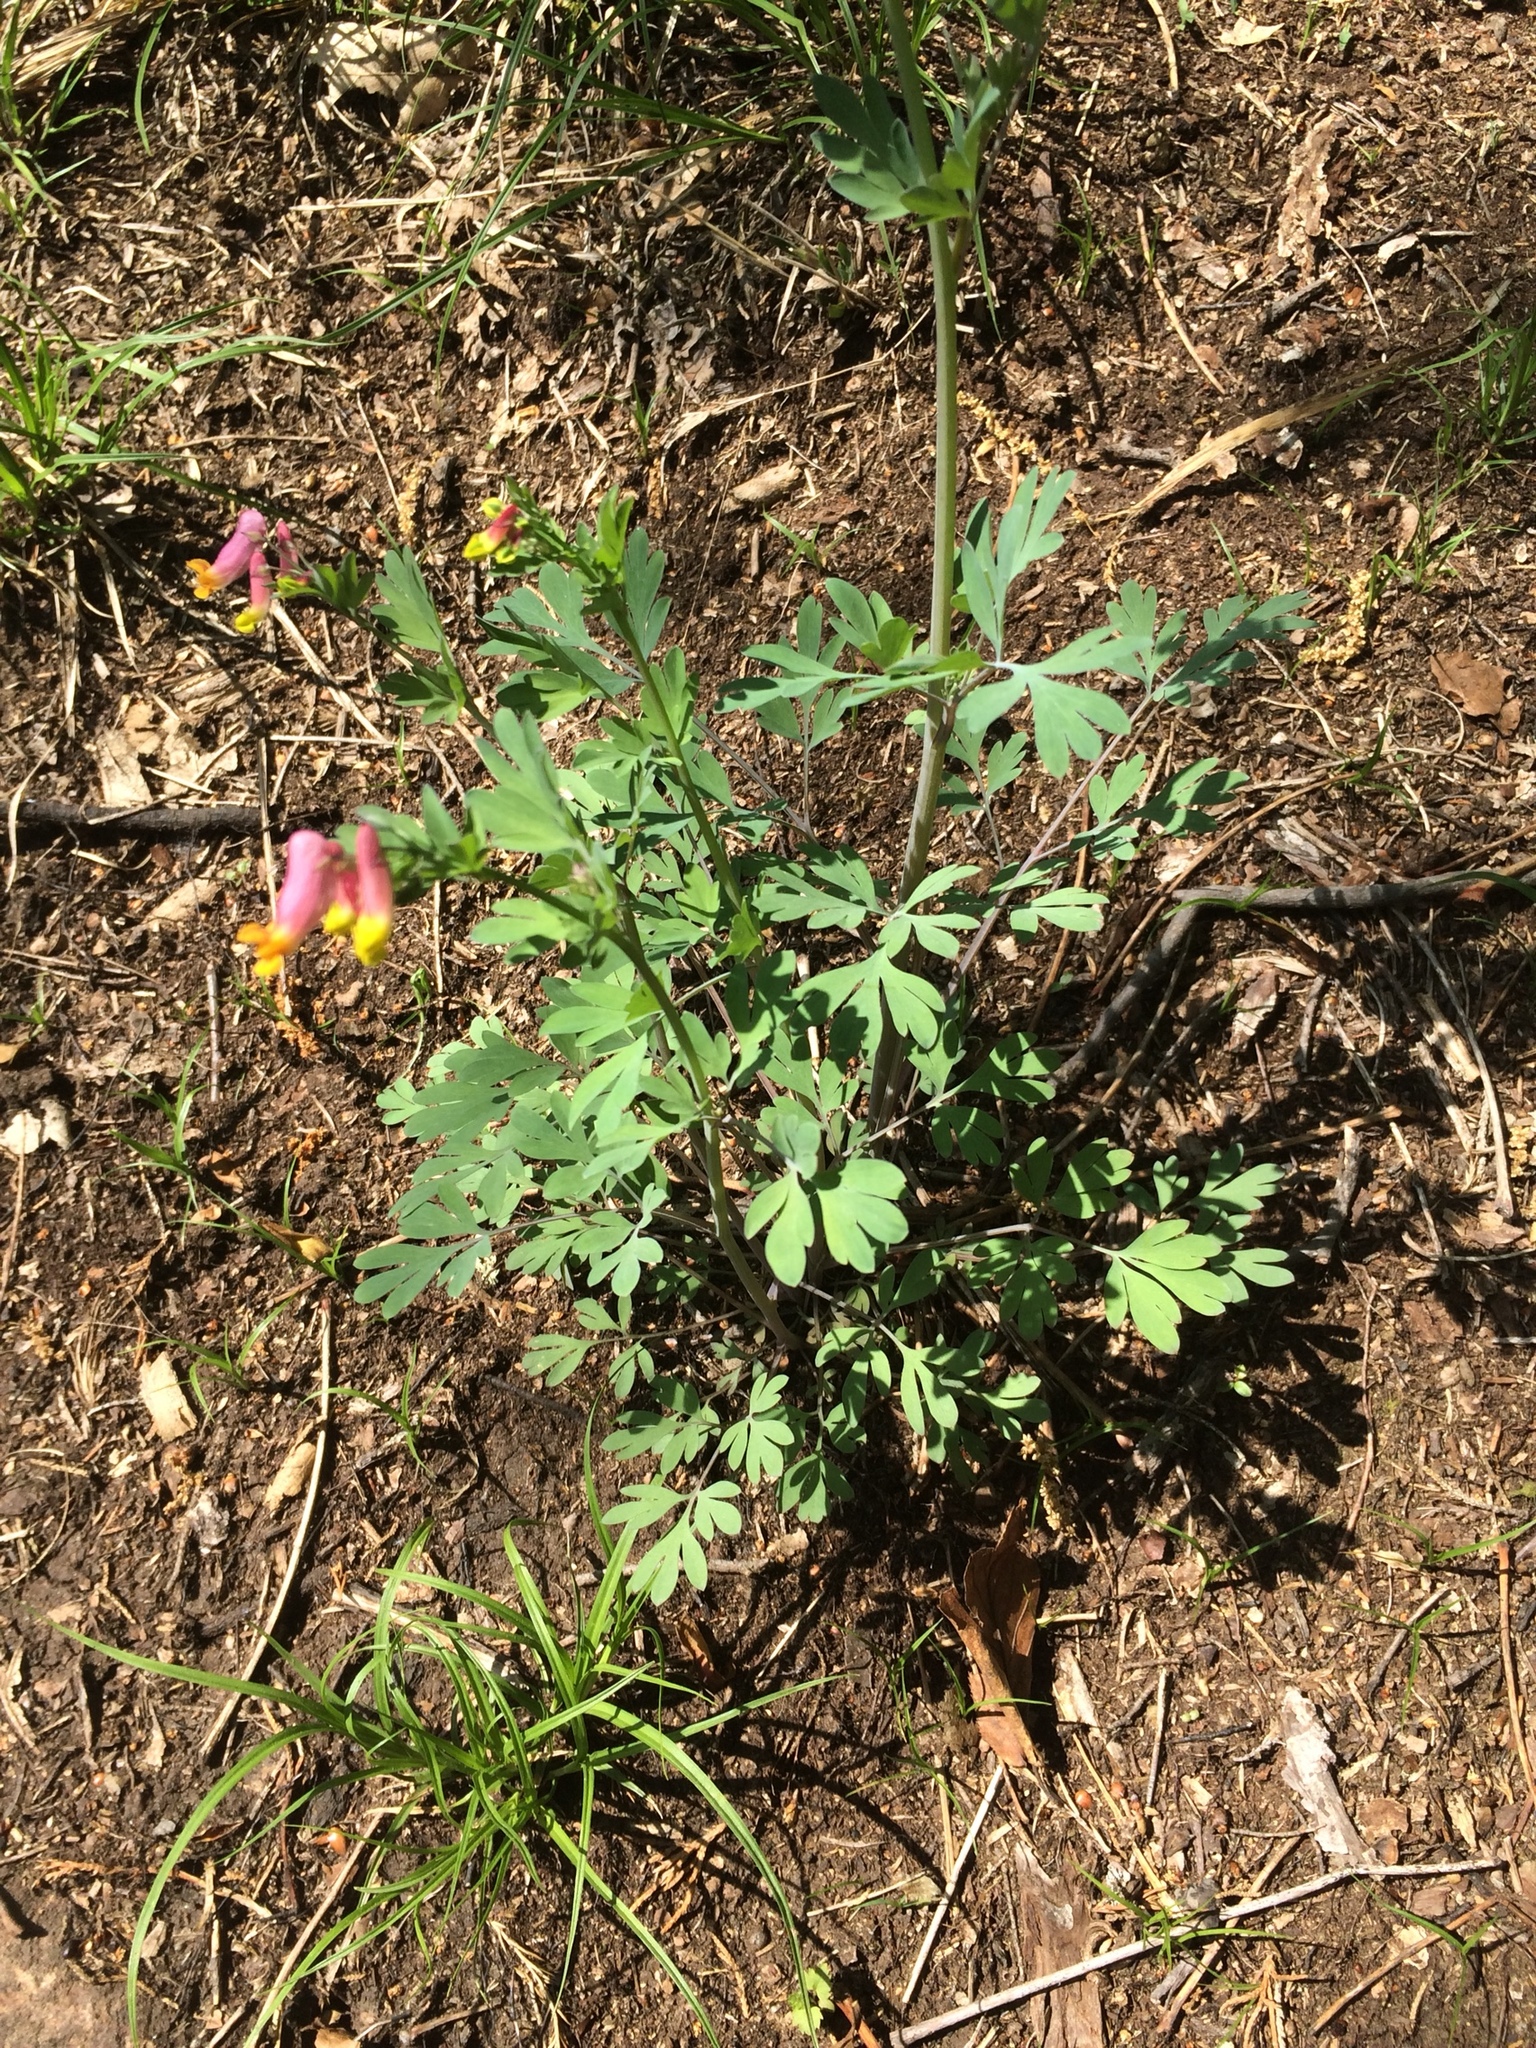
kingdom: Plantae
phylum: Tracheophyta
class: Magnoliopsida
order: Ranunculales
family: Papaveraceae
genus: Capnoides
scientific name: Capnoides sempervirens
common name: Rock harlequin
